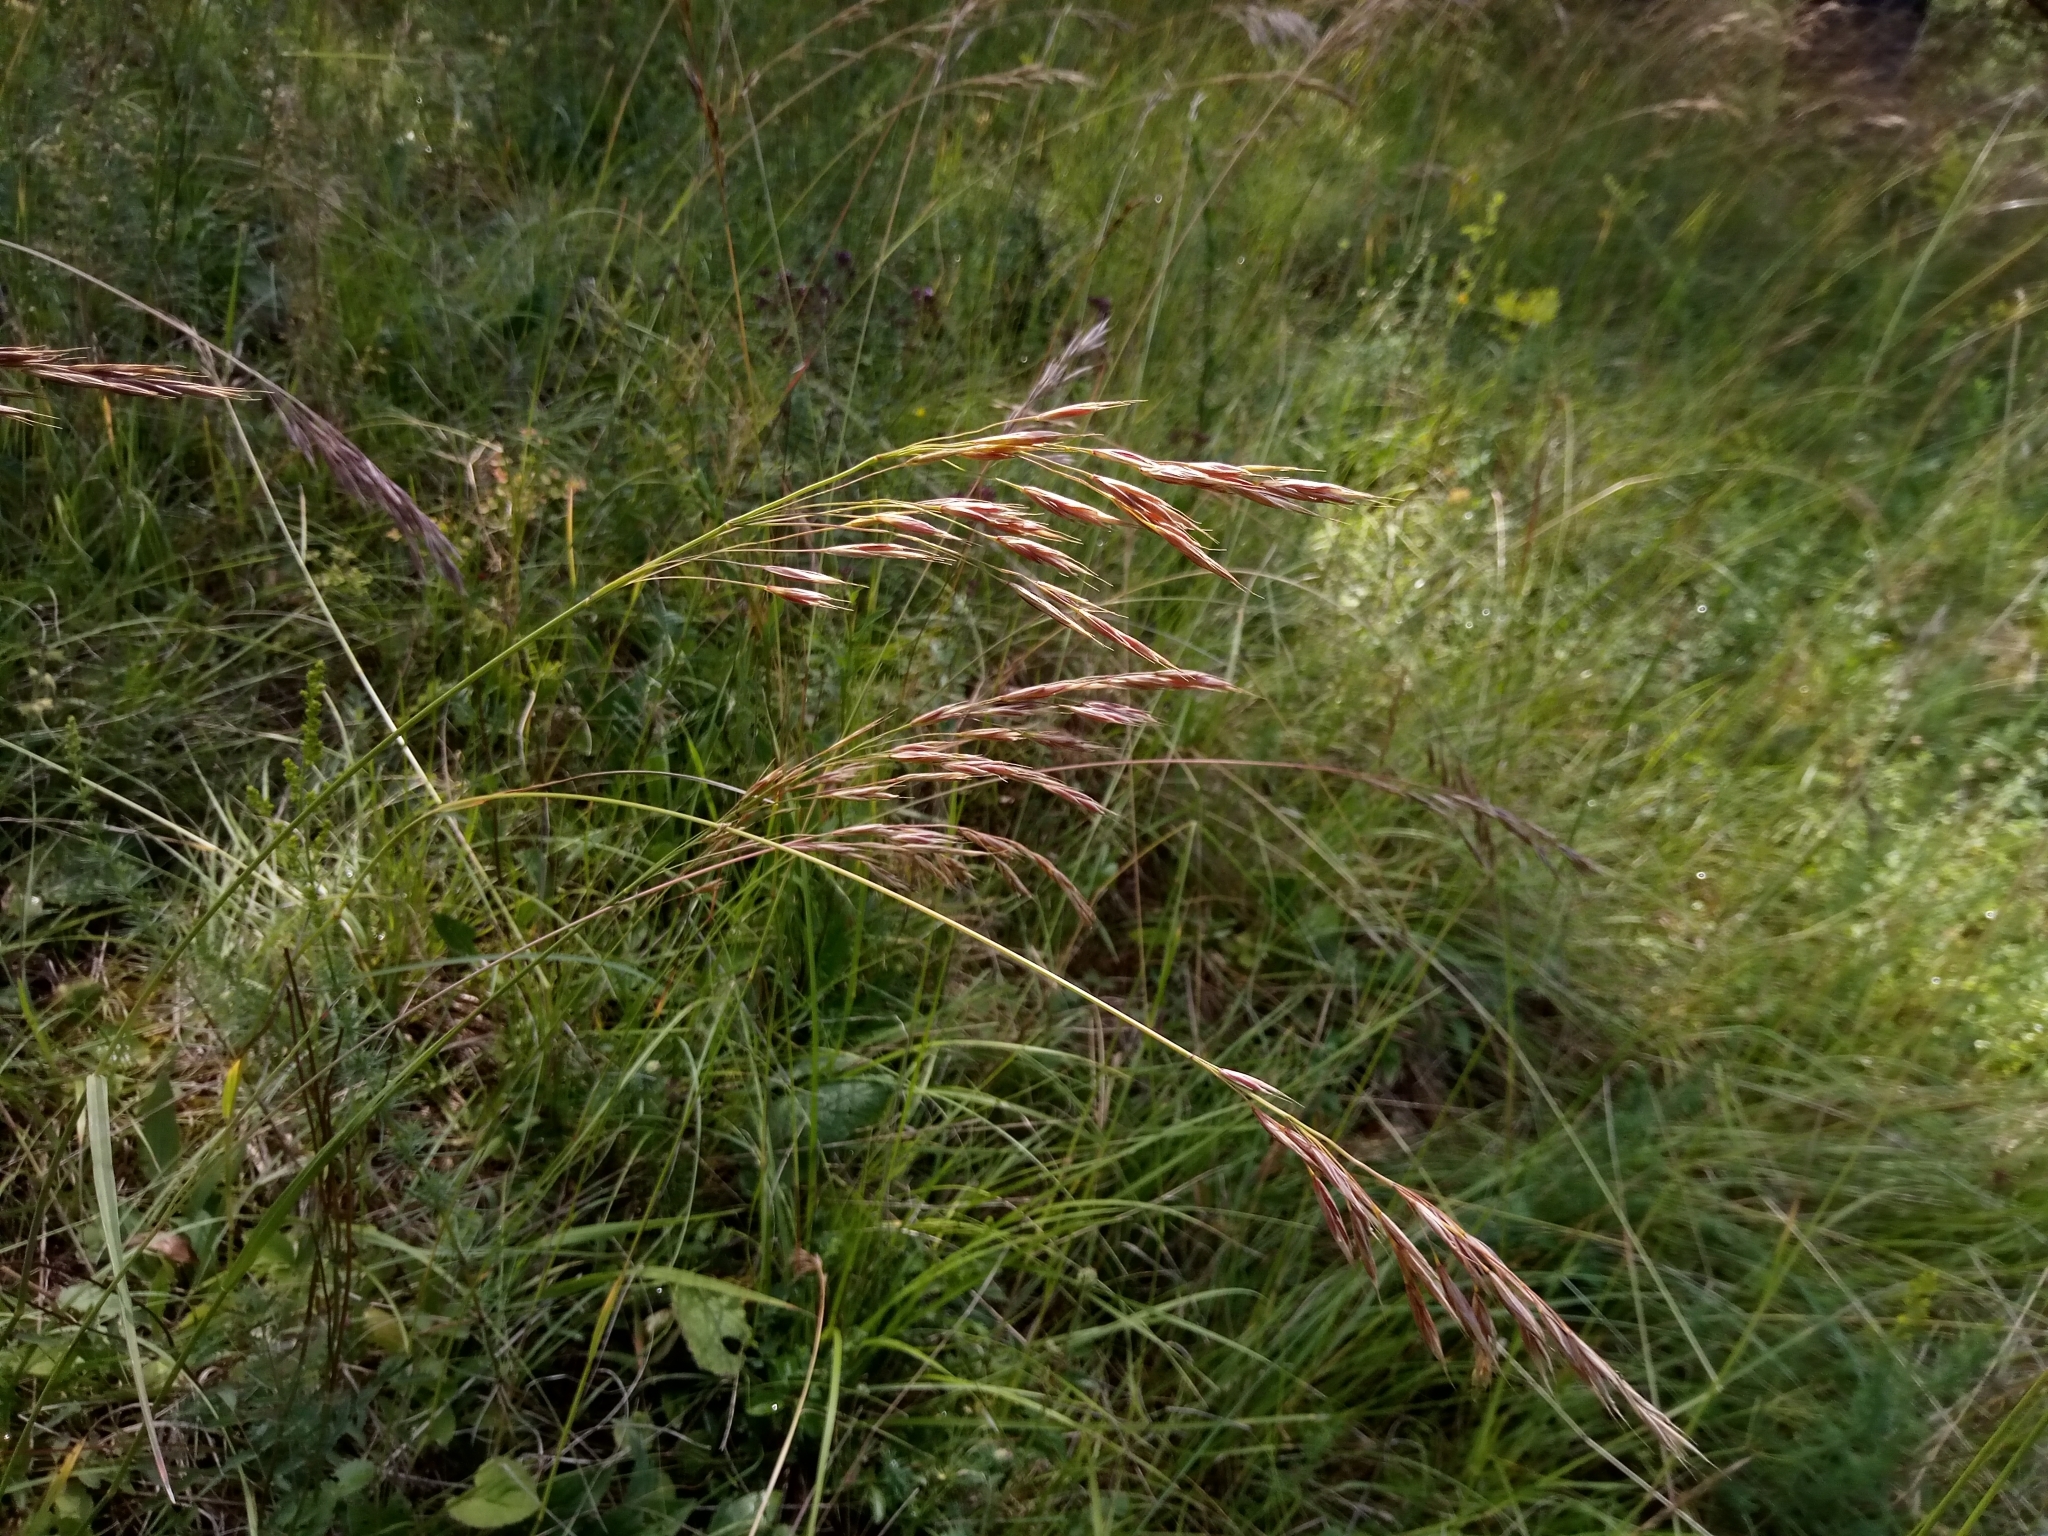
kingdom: Plantae
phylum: Tracheophyta
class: Liliopsida
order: Poales
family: Poaceae
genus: Bromus
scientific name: Bromus erectus
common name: Erect brome
